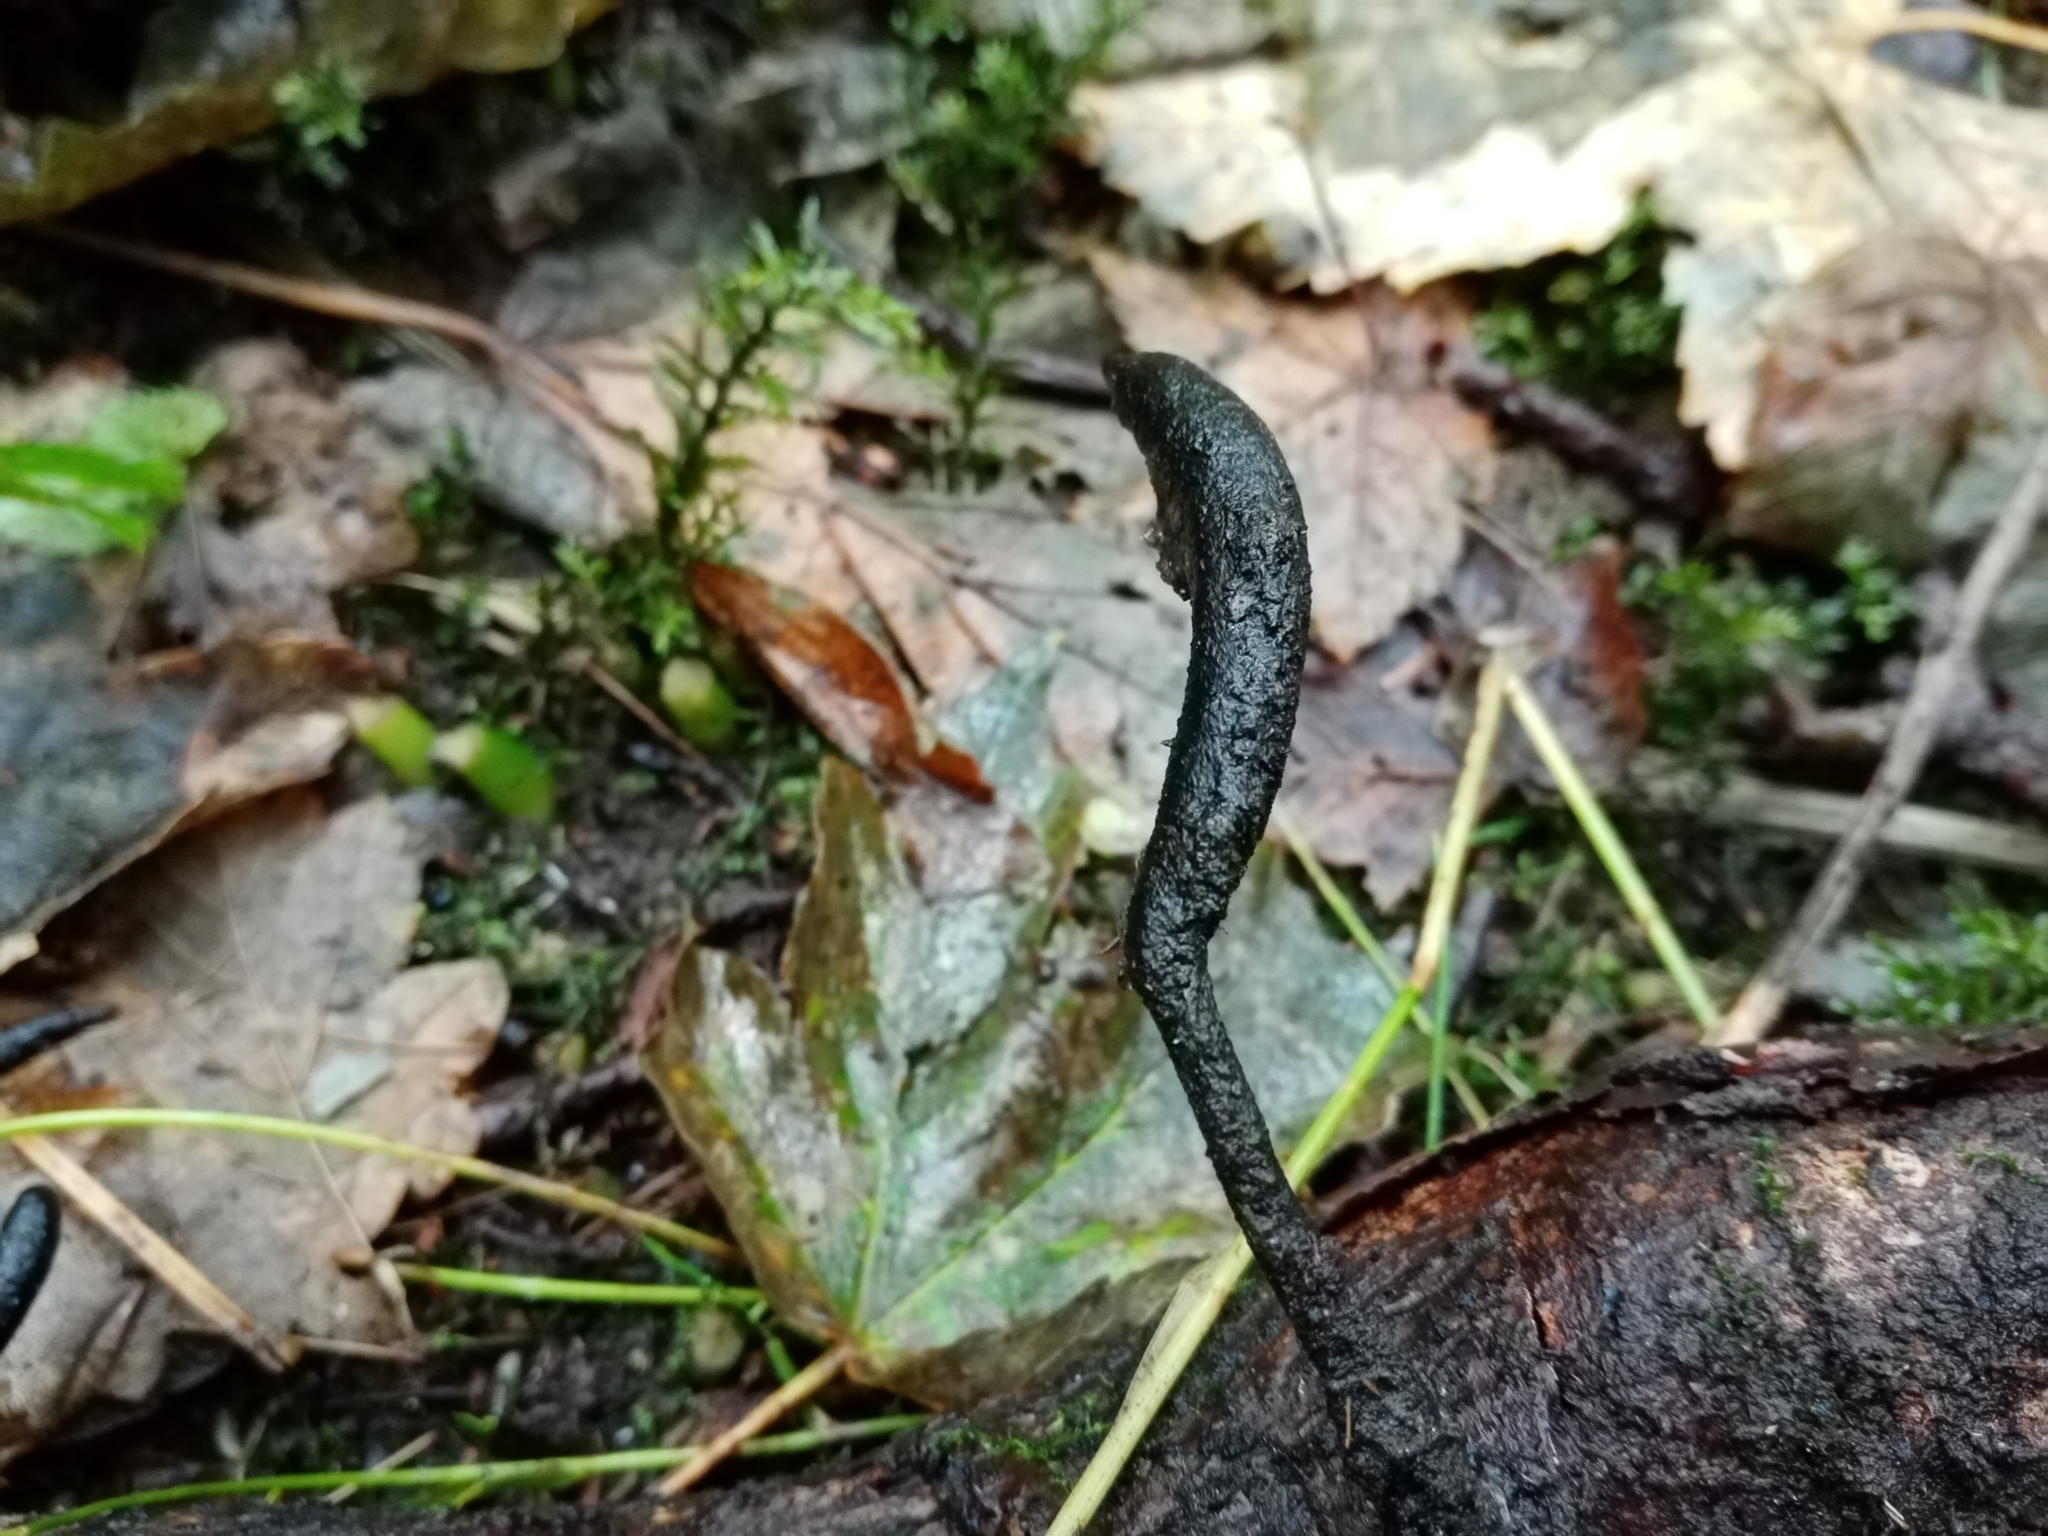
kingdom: Fungi
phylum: Ascomycota
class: Sordariomycetes
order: Xylariales
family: Xylariaceae
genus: Xylaria
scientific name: Xylaria longipes
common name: Dead moll's fingers
